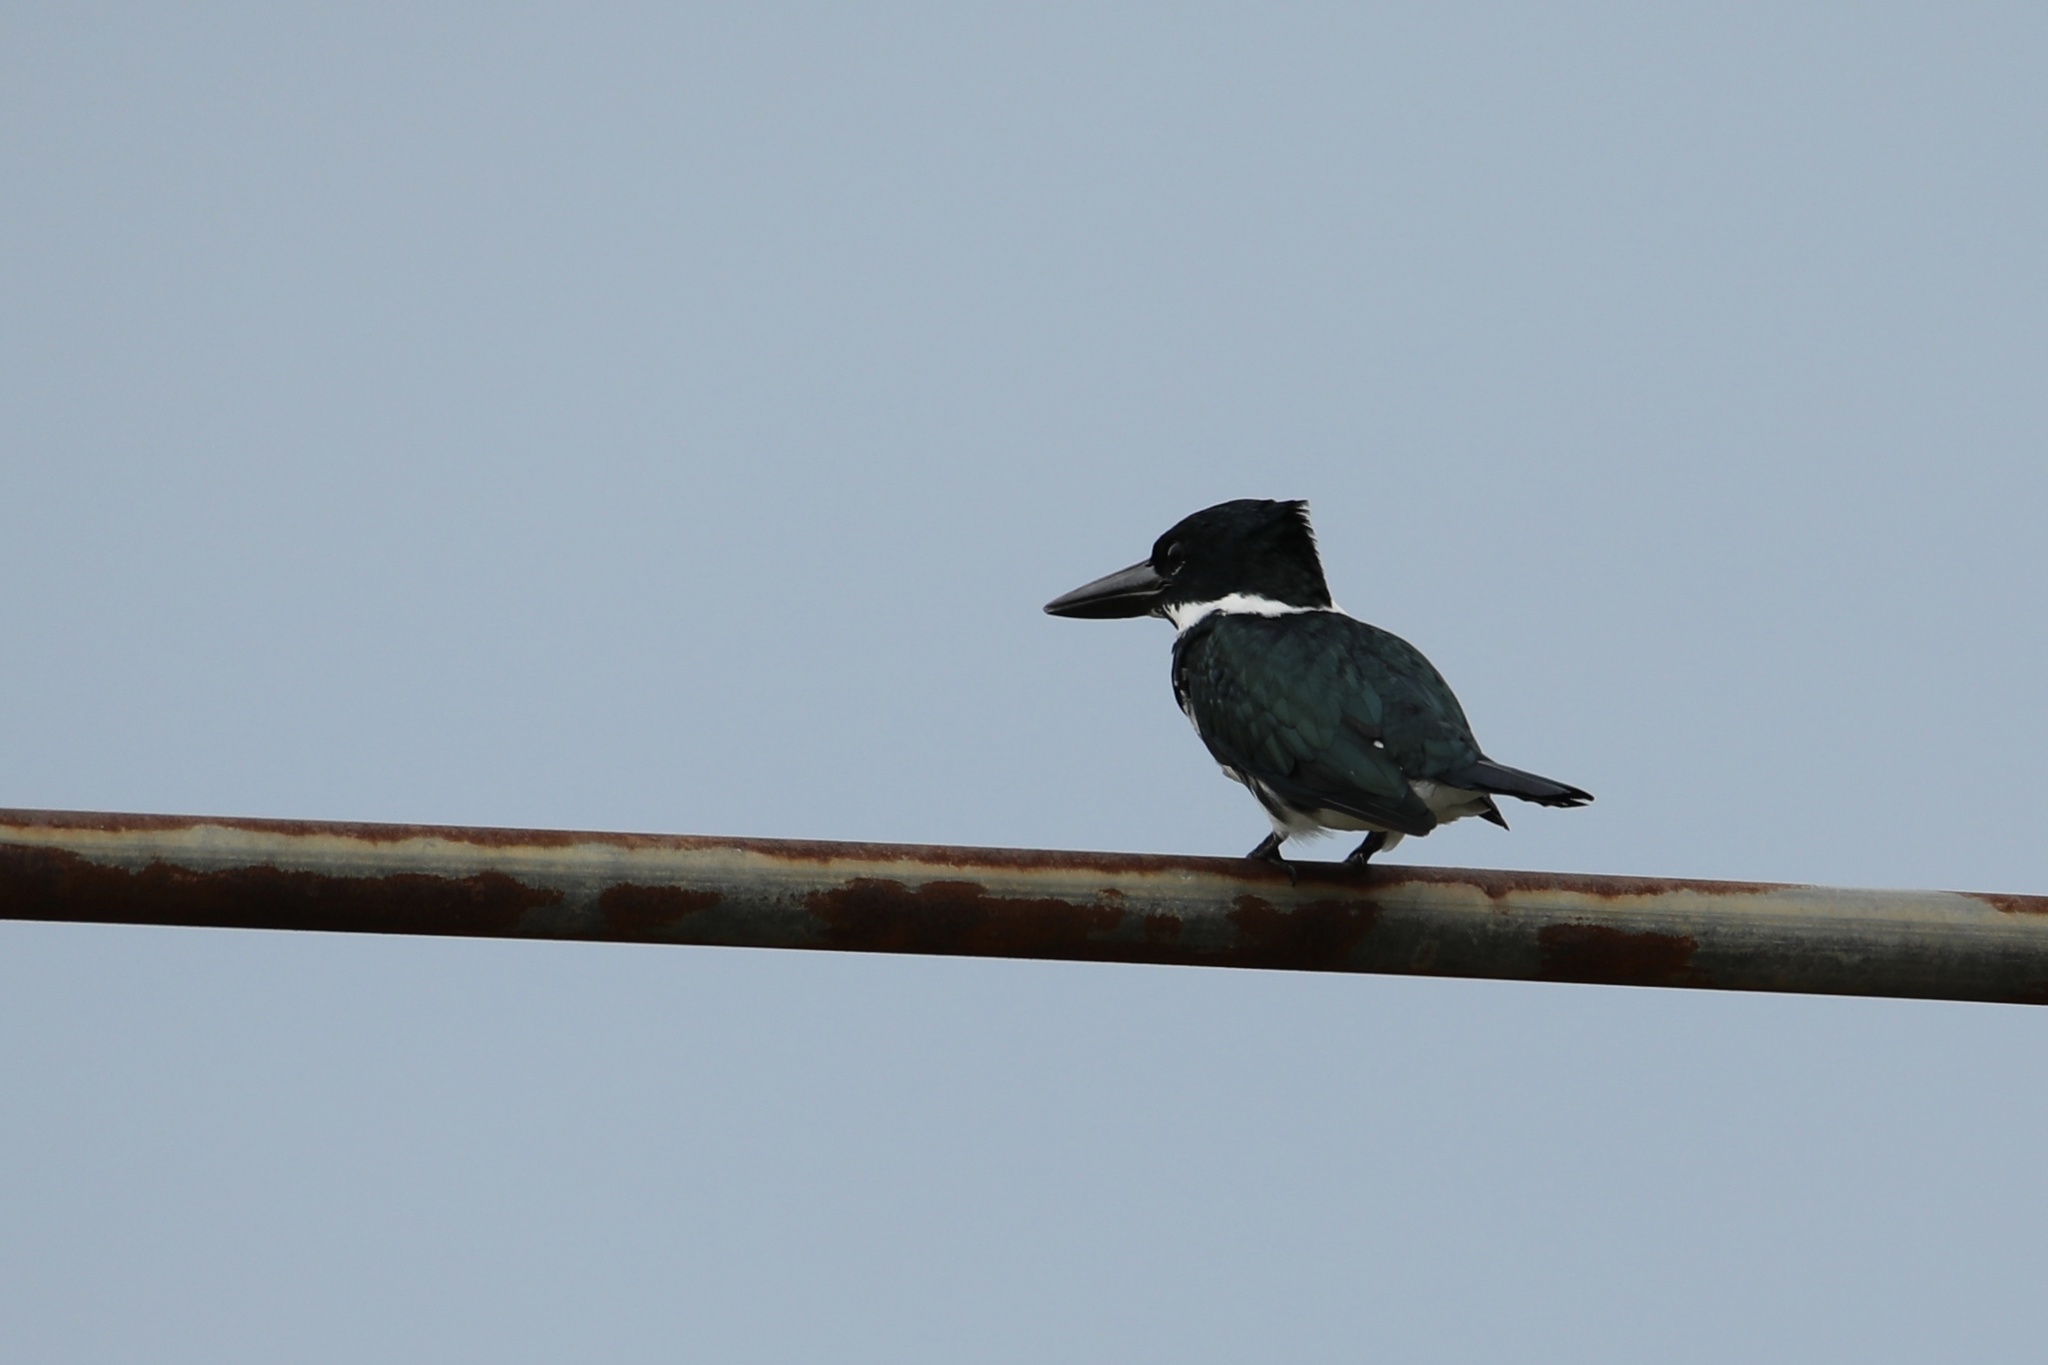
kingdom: Animalia
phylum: Chordata
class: Aves
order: Coraciiformes
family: Alcedinidae
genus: Chloroceryle
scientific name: Chloroceryle amazona
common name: Amazon kingfisher
